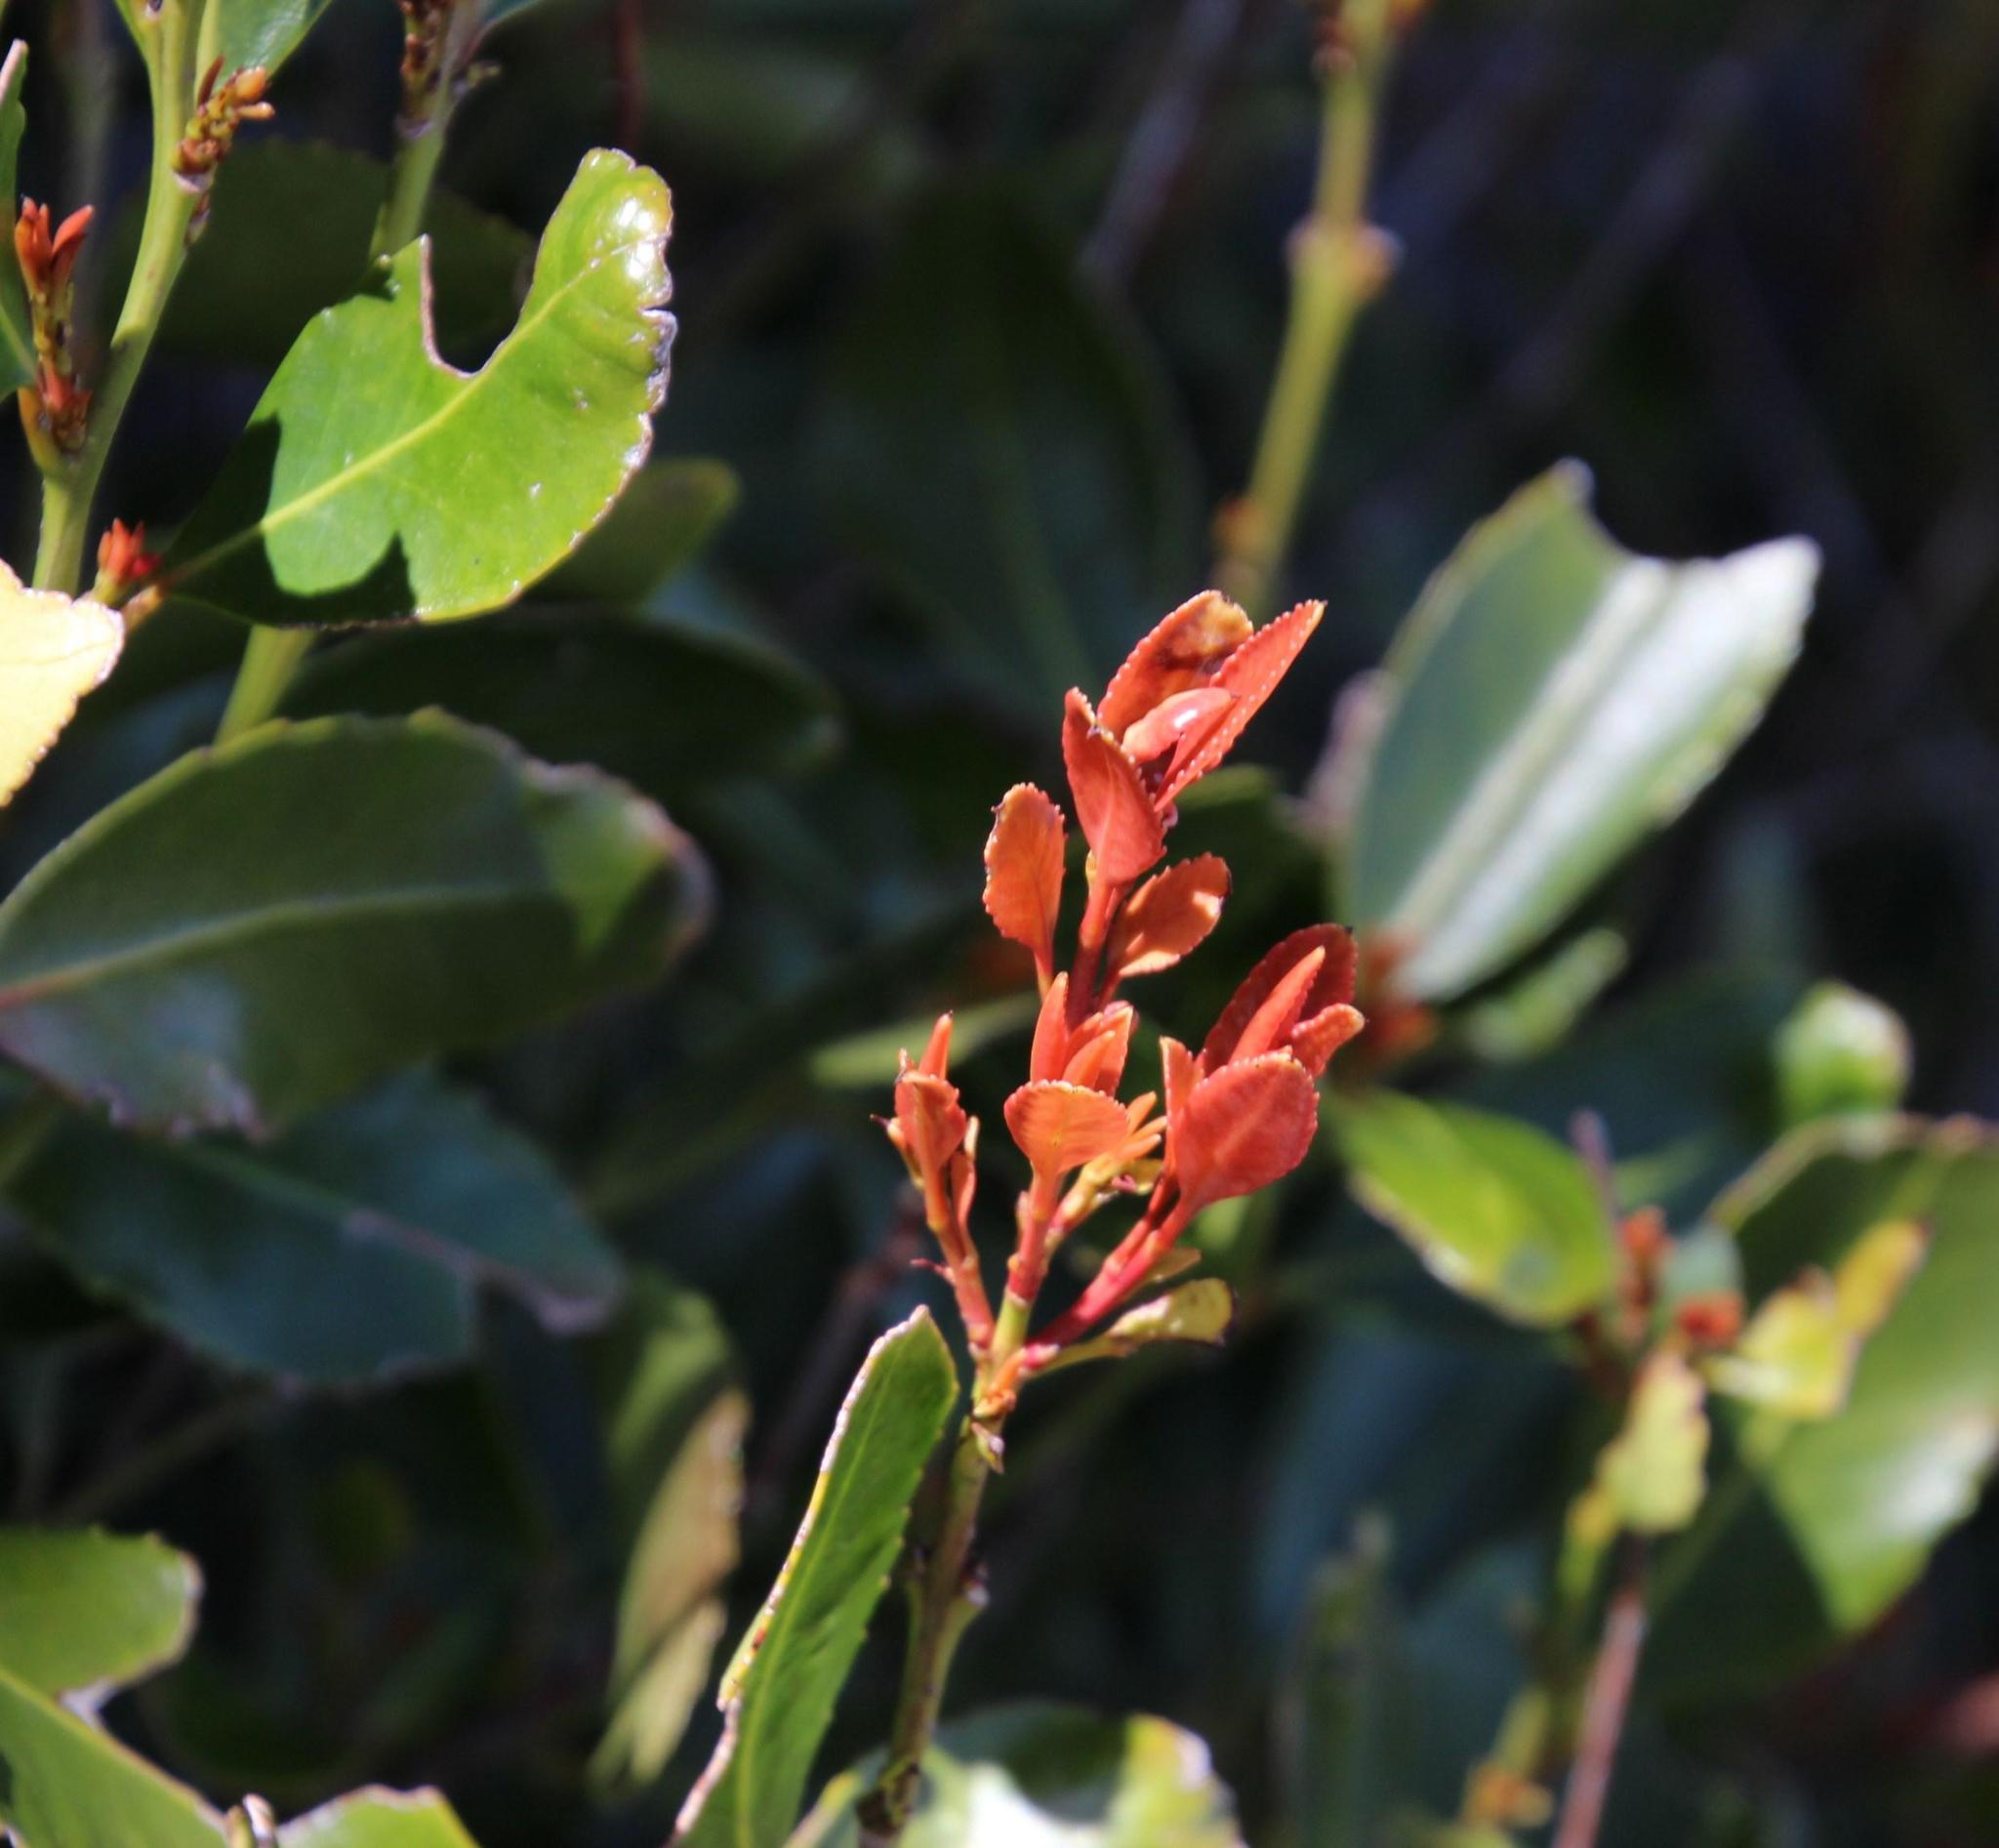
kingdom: Plantae
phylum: Tracheophyta
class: Magnoliopsida
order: Celastrales
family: Celastraceae
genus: Elaeodendron
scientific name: Elaeodendron schinoides
